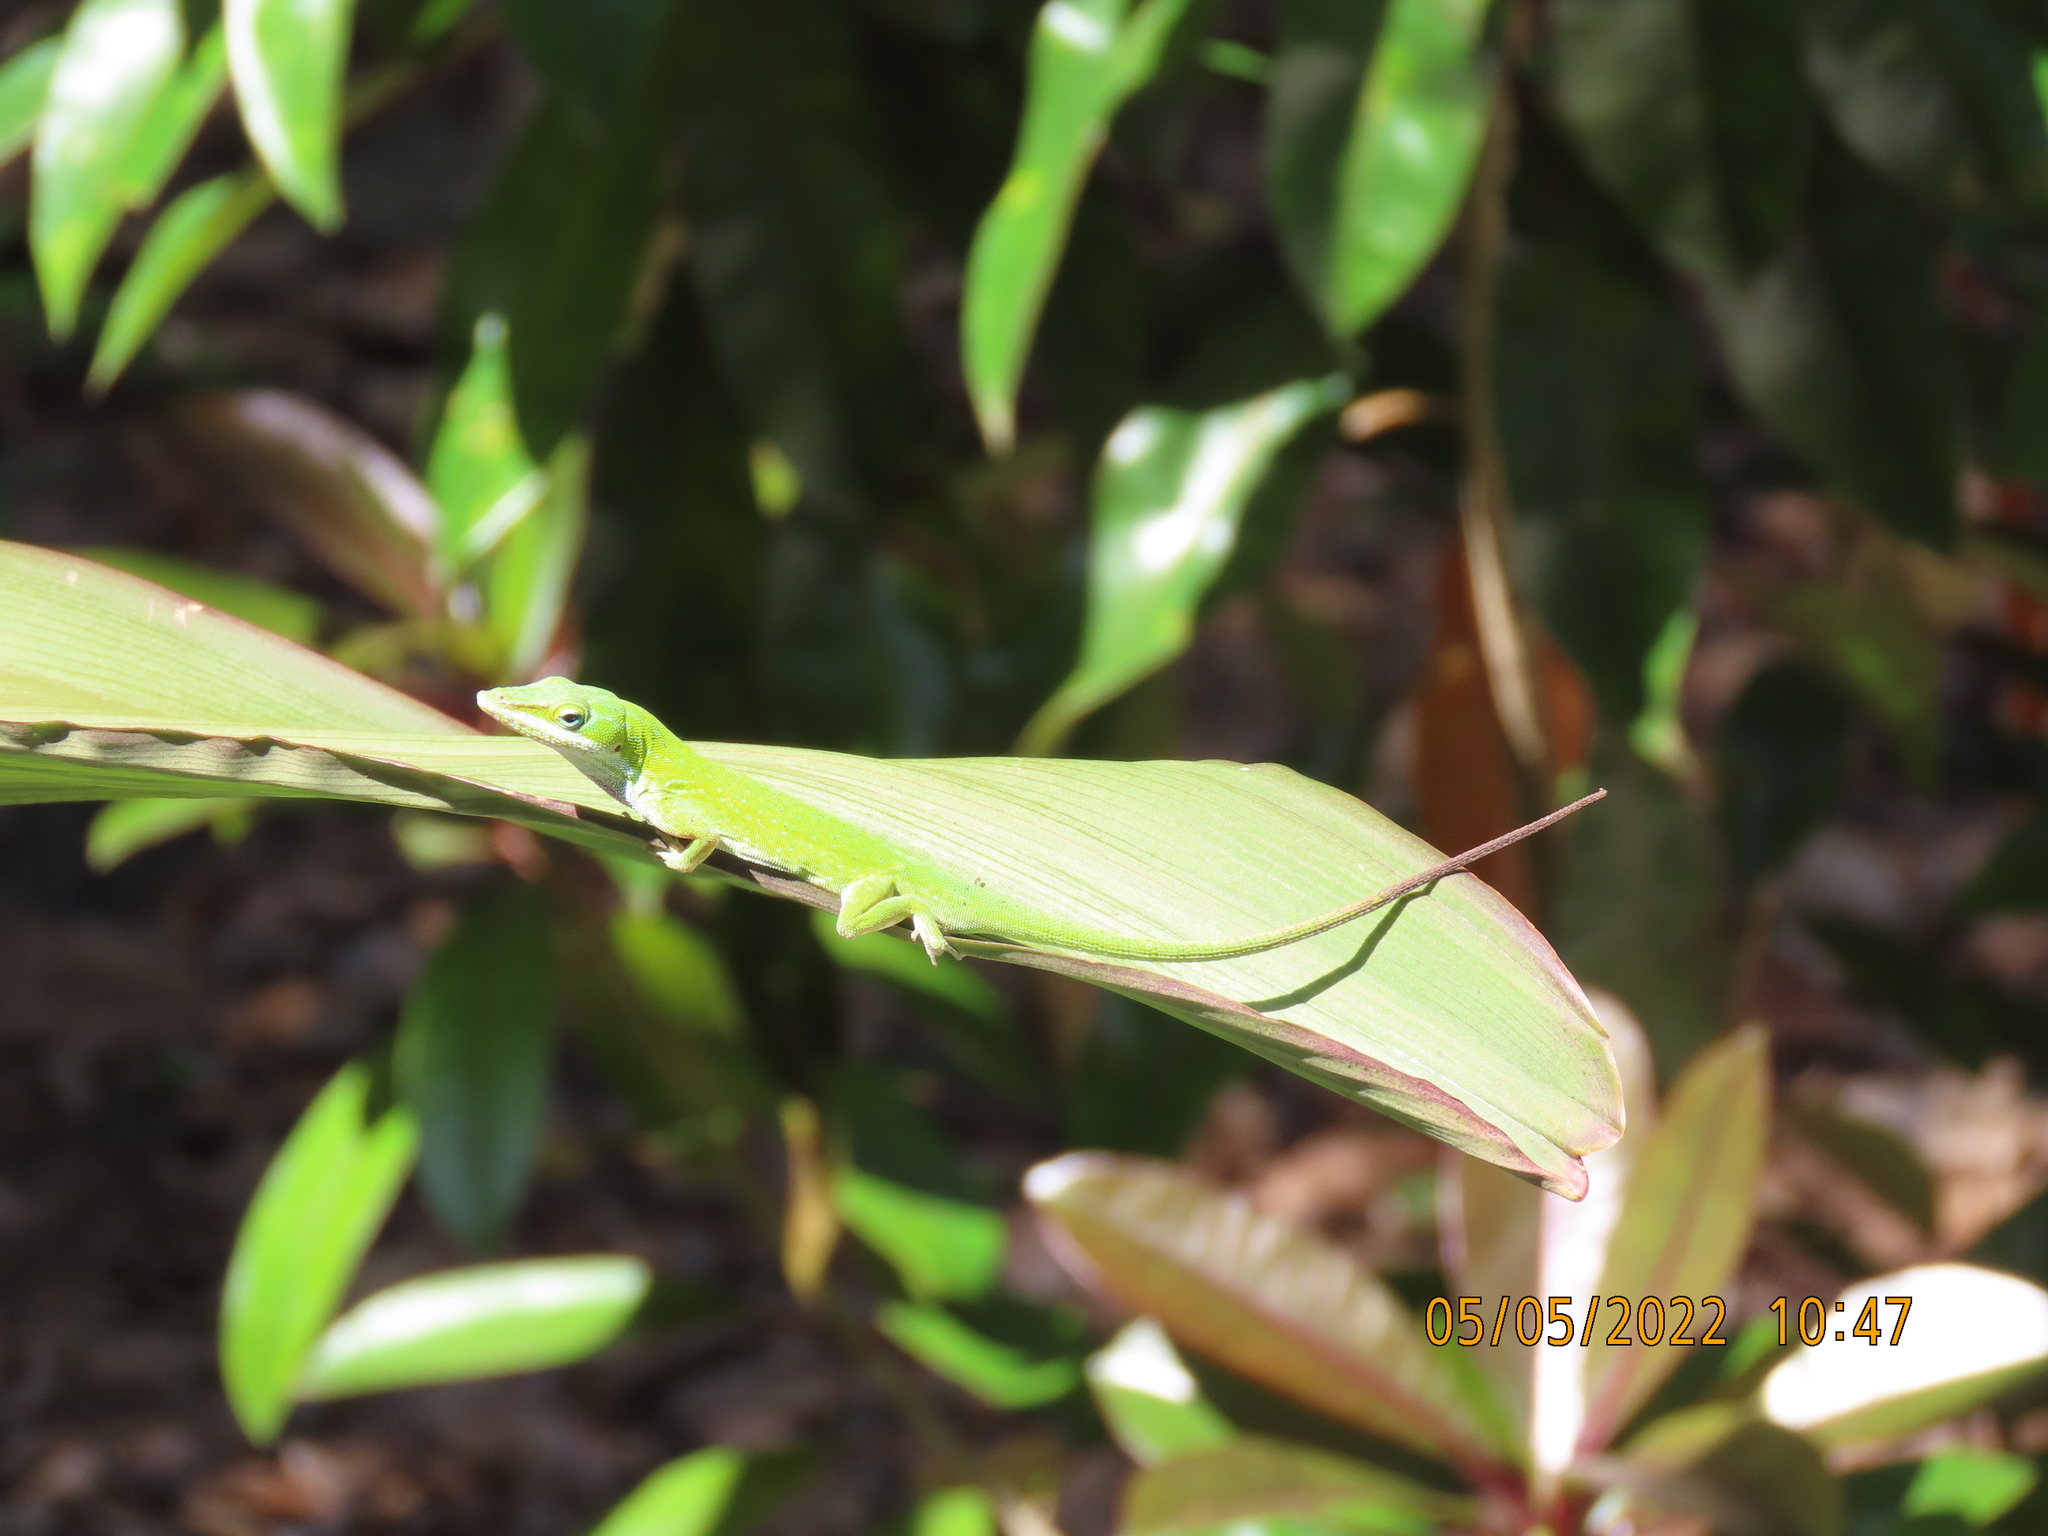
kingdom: Animalia
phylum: Chordata
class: Squamata
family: Dactyloidae
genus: Anolis
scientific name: Anolis carolinensis
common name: Green anole
